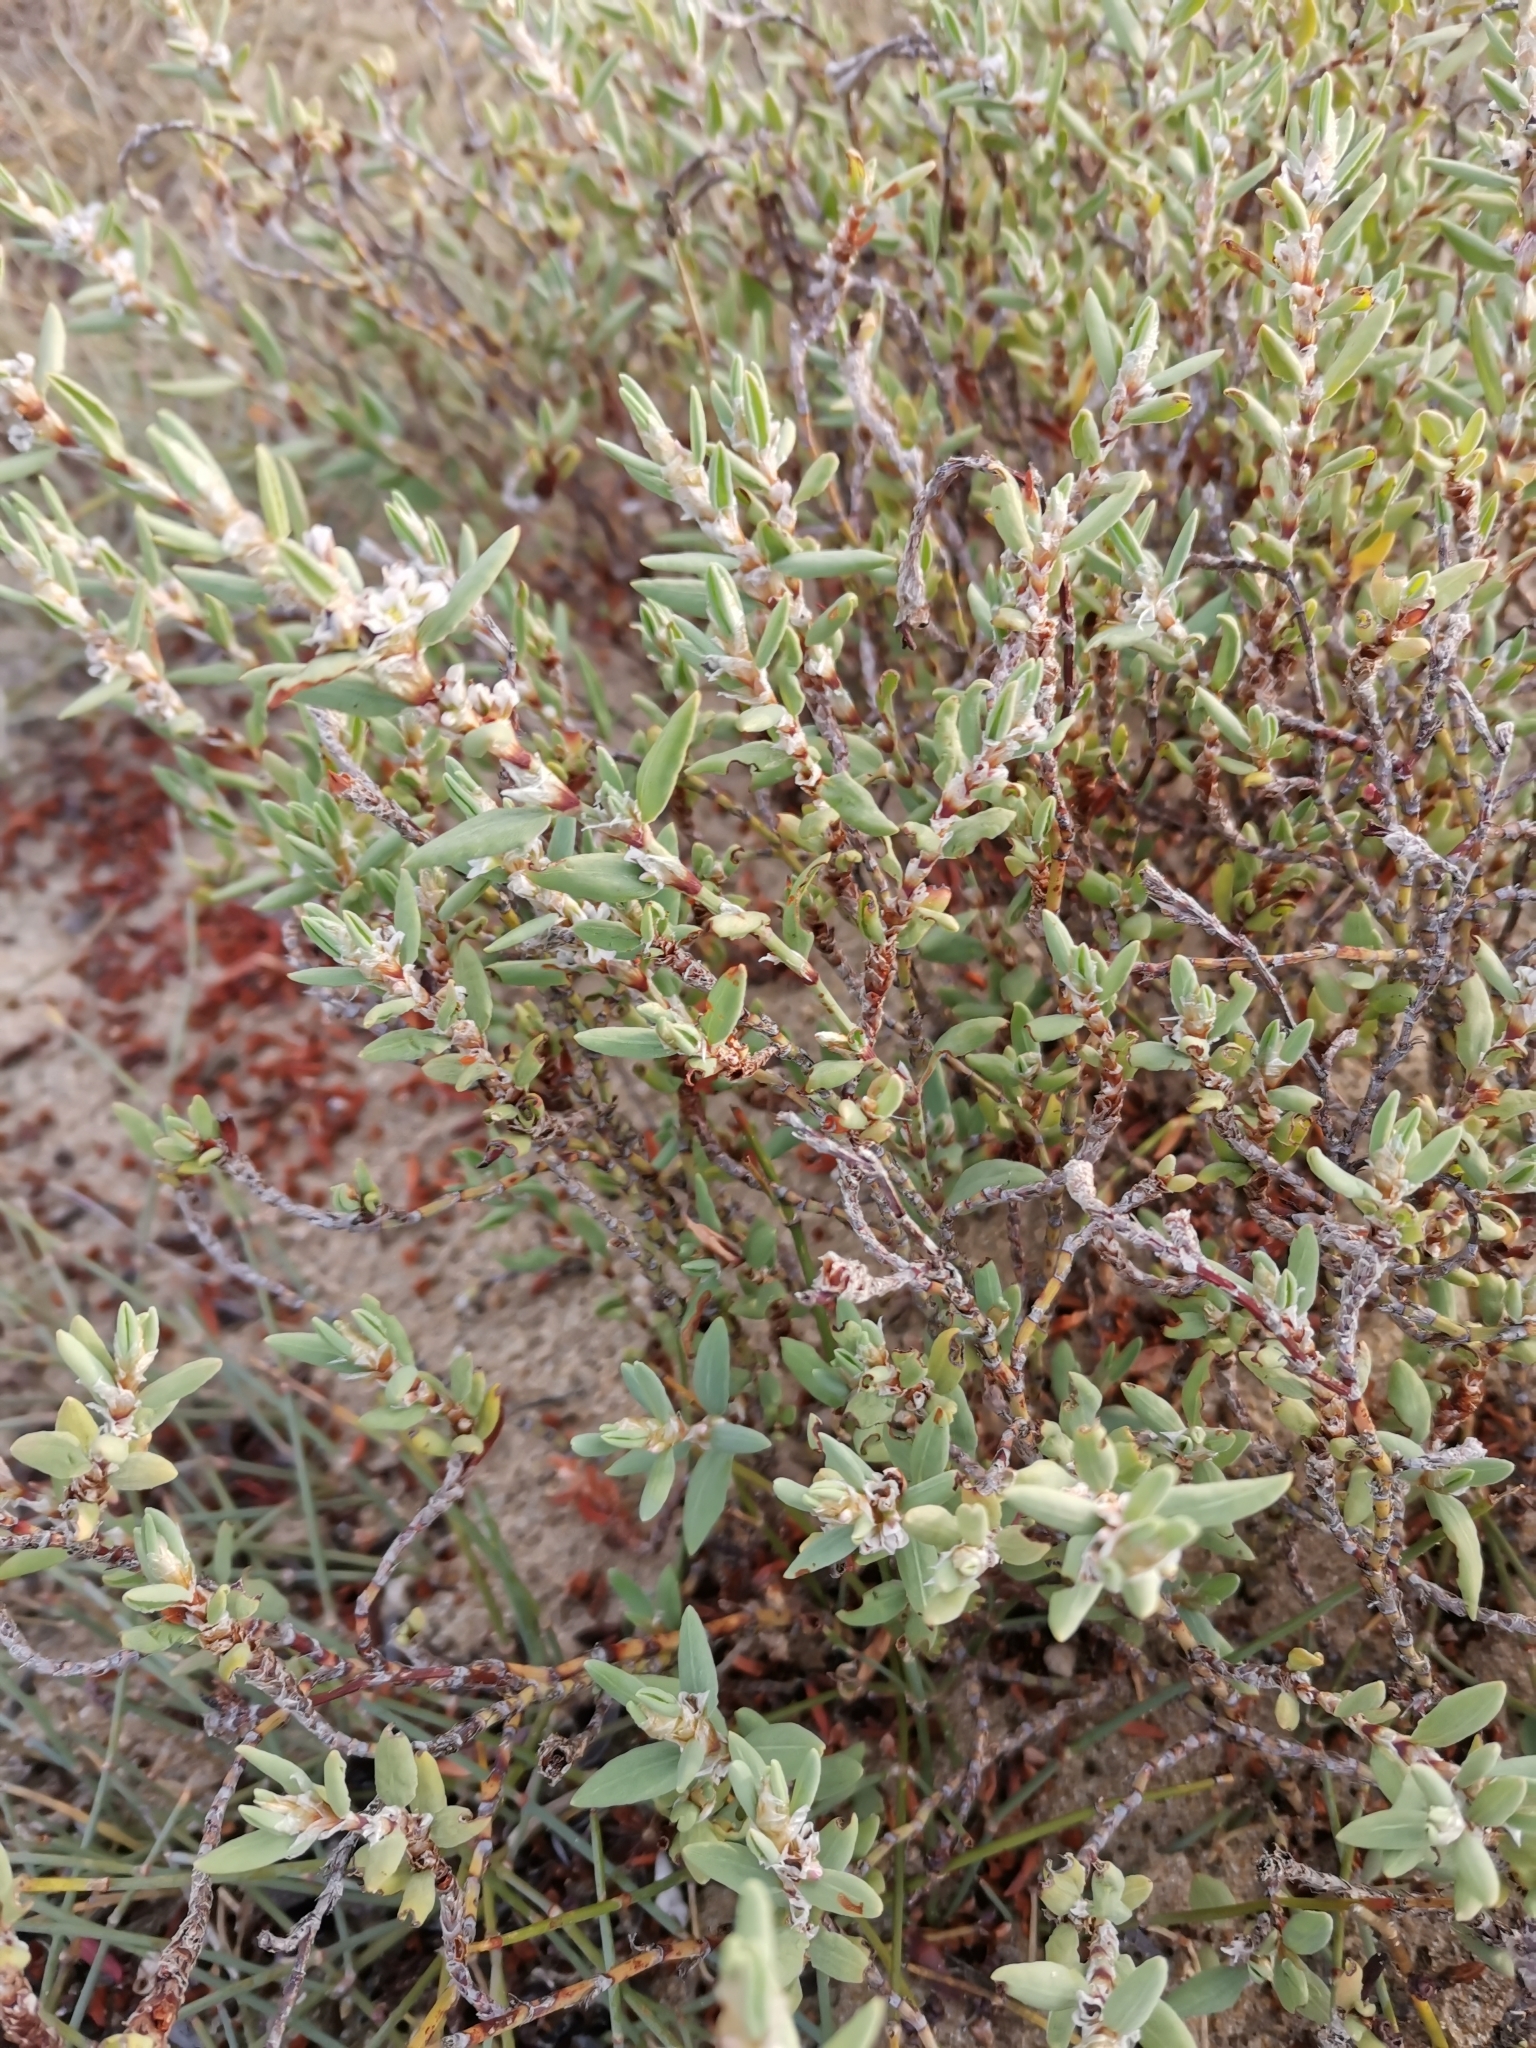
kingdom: Plantae
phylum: Tracheophyta
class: Magnoliopsida
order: Caryophyllales
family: Polygonaceae
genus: Polygonum
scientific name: Polygonum maritimum
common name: Sea knotgrass
